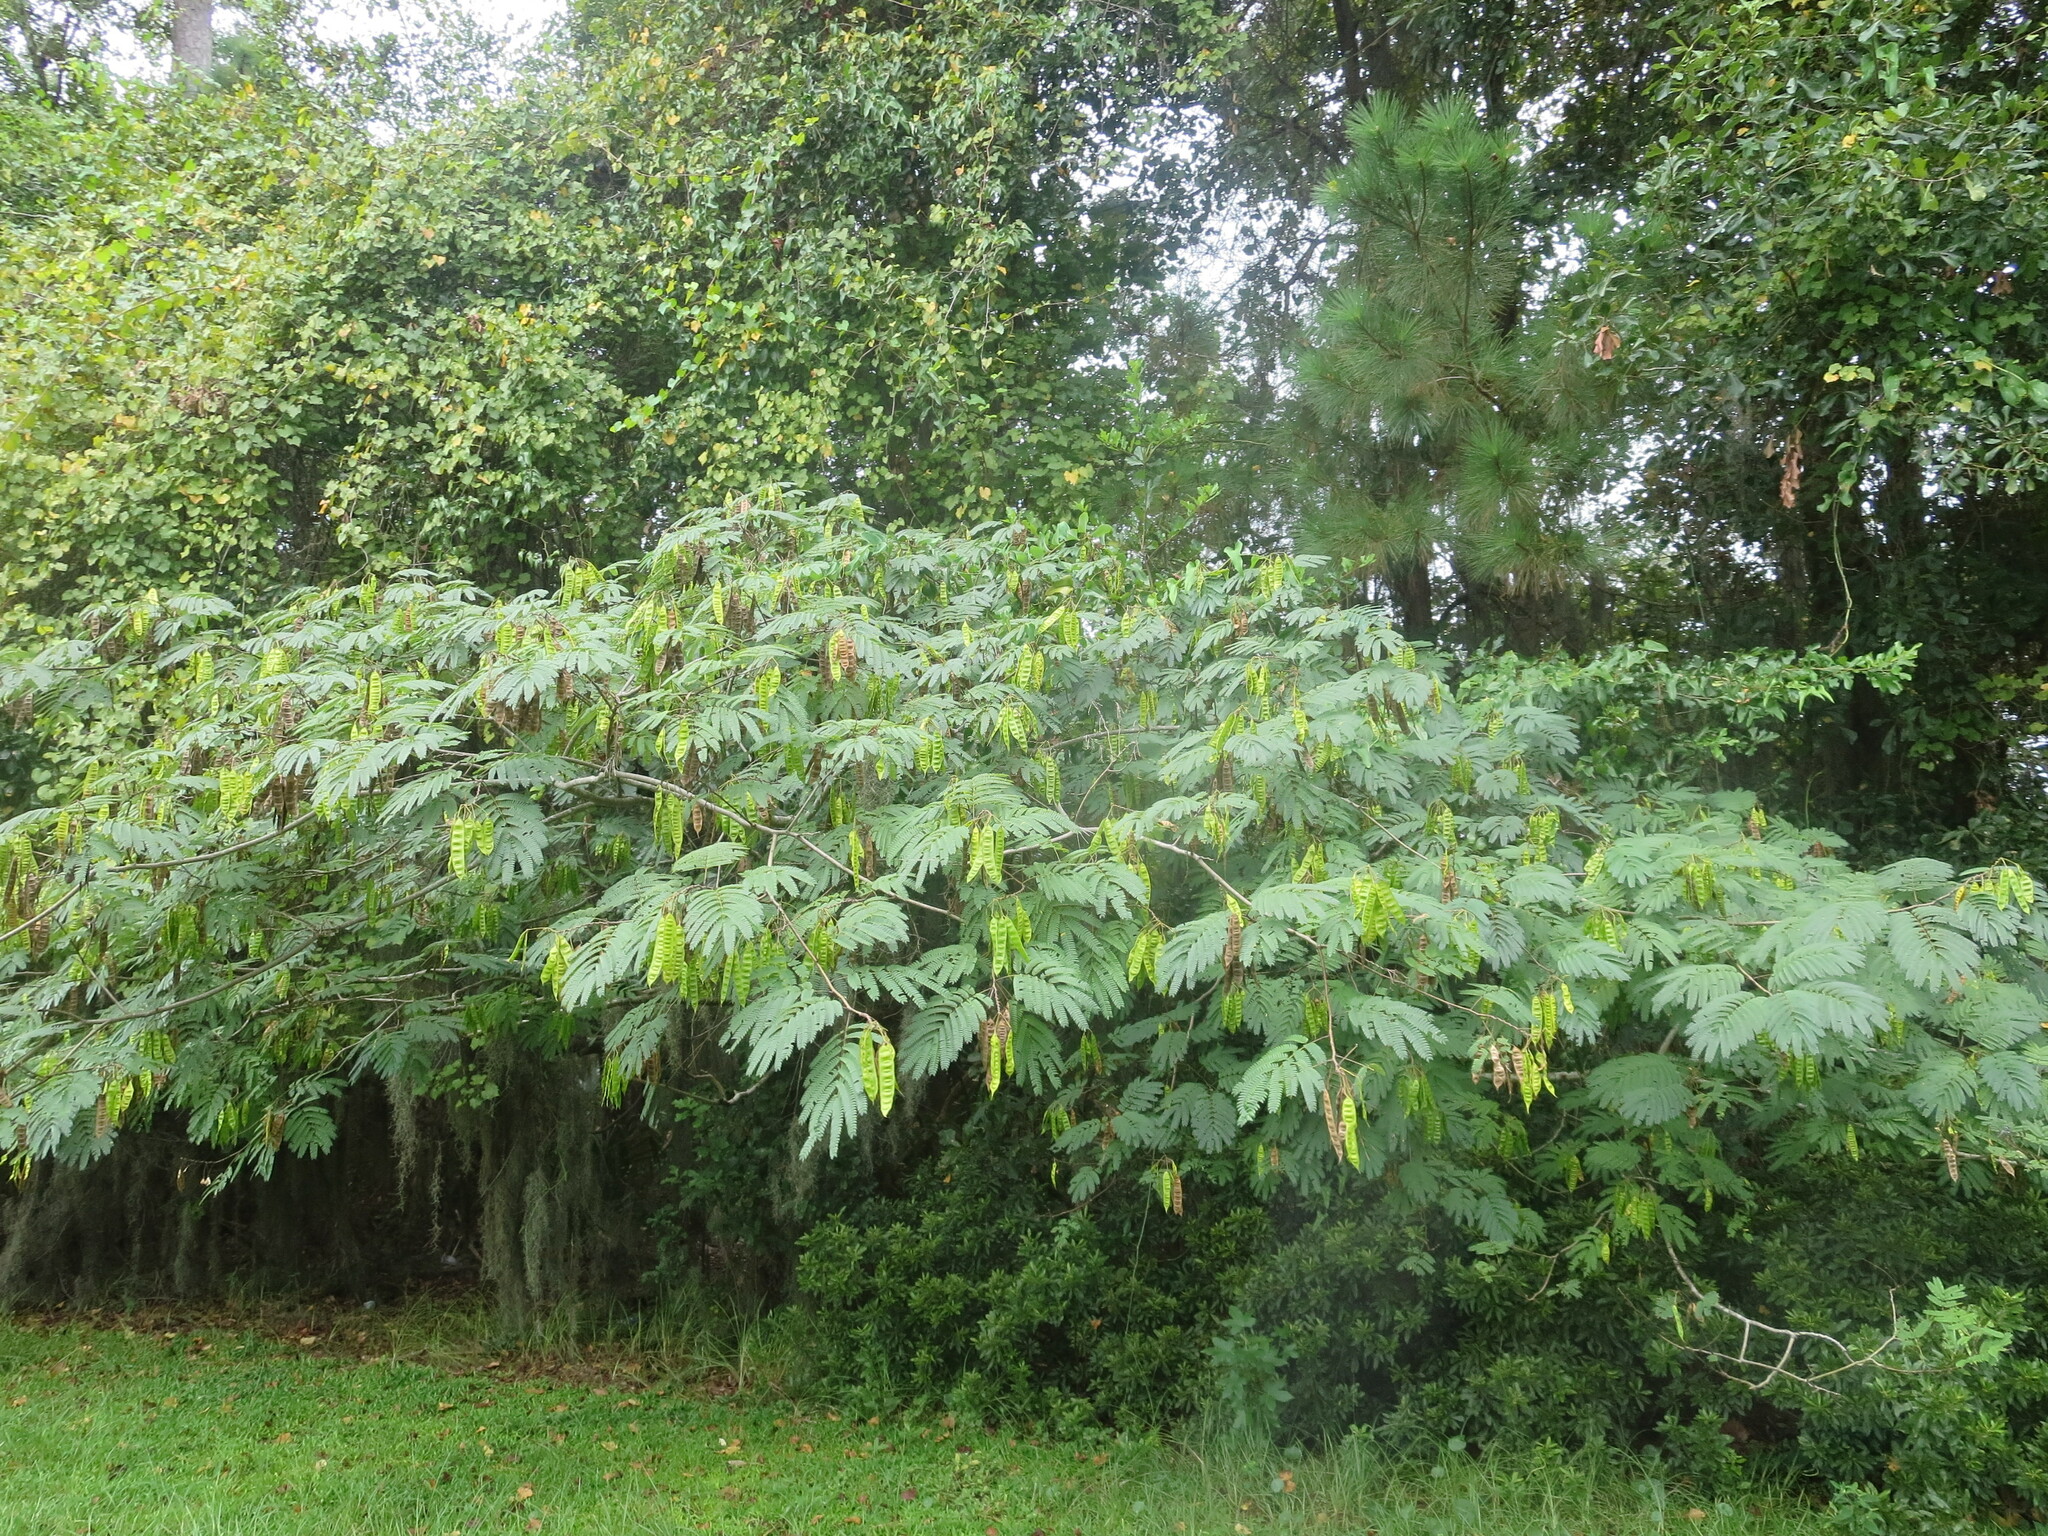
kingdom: Plantae
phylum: Tracheophyta
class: Magnoliopsida
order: Fabales
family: Fabaceae
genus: Albizia
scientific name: Albizia julibrissin
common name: Silktree
